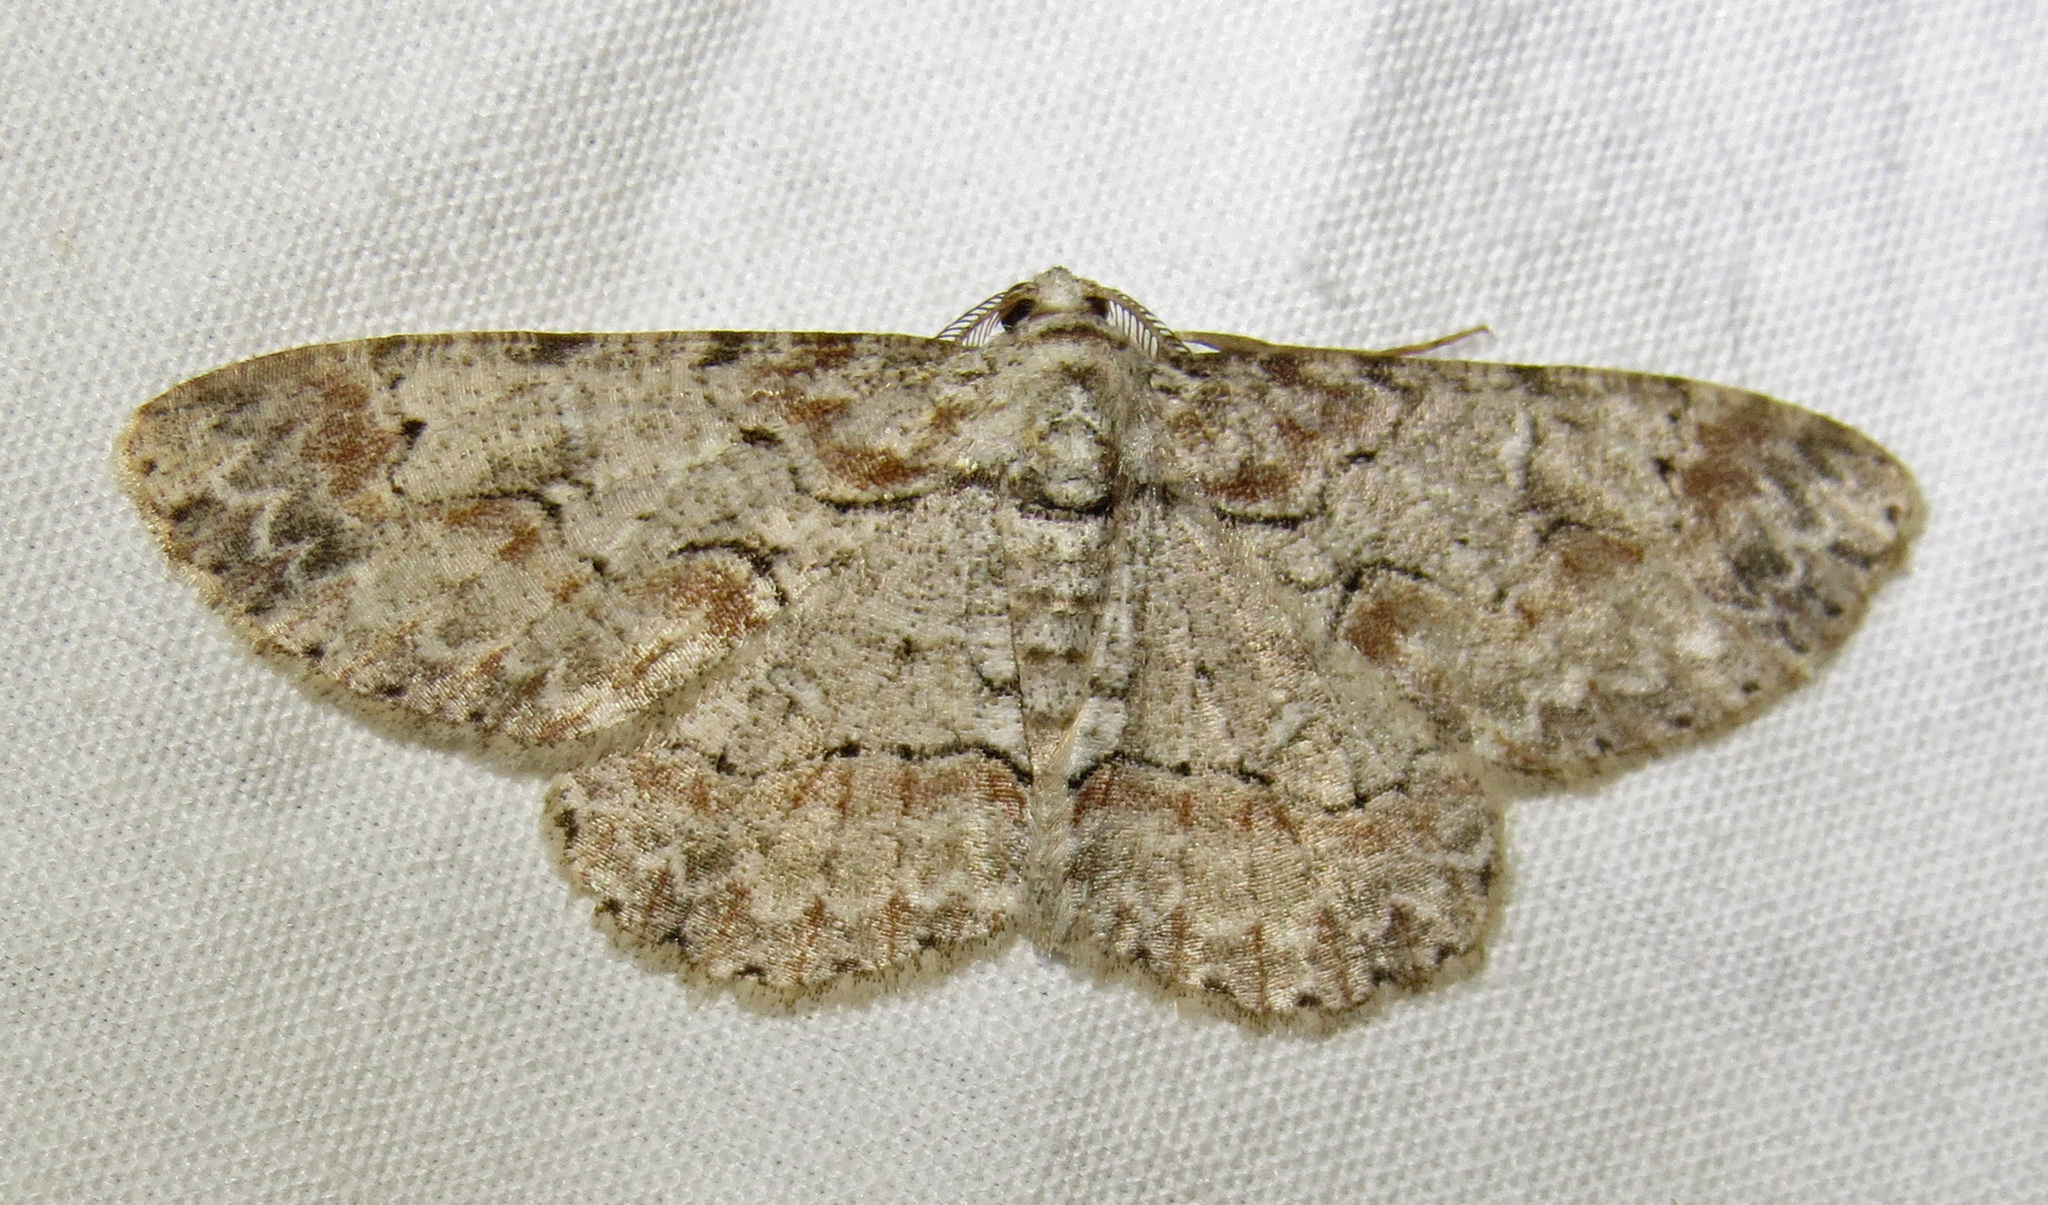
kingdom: Animalia
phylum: Arthropoda
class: Insecta
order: Lepidoptera
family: Geometridae
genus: Iridopsis
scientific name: Iridopsis defectaria
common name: Brown-shaded gray
